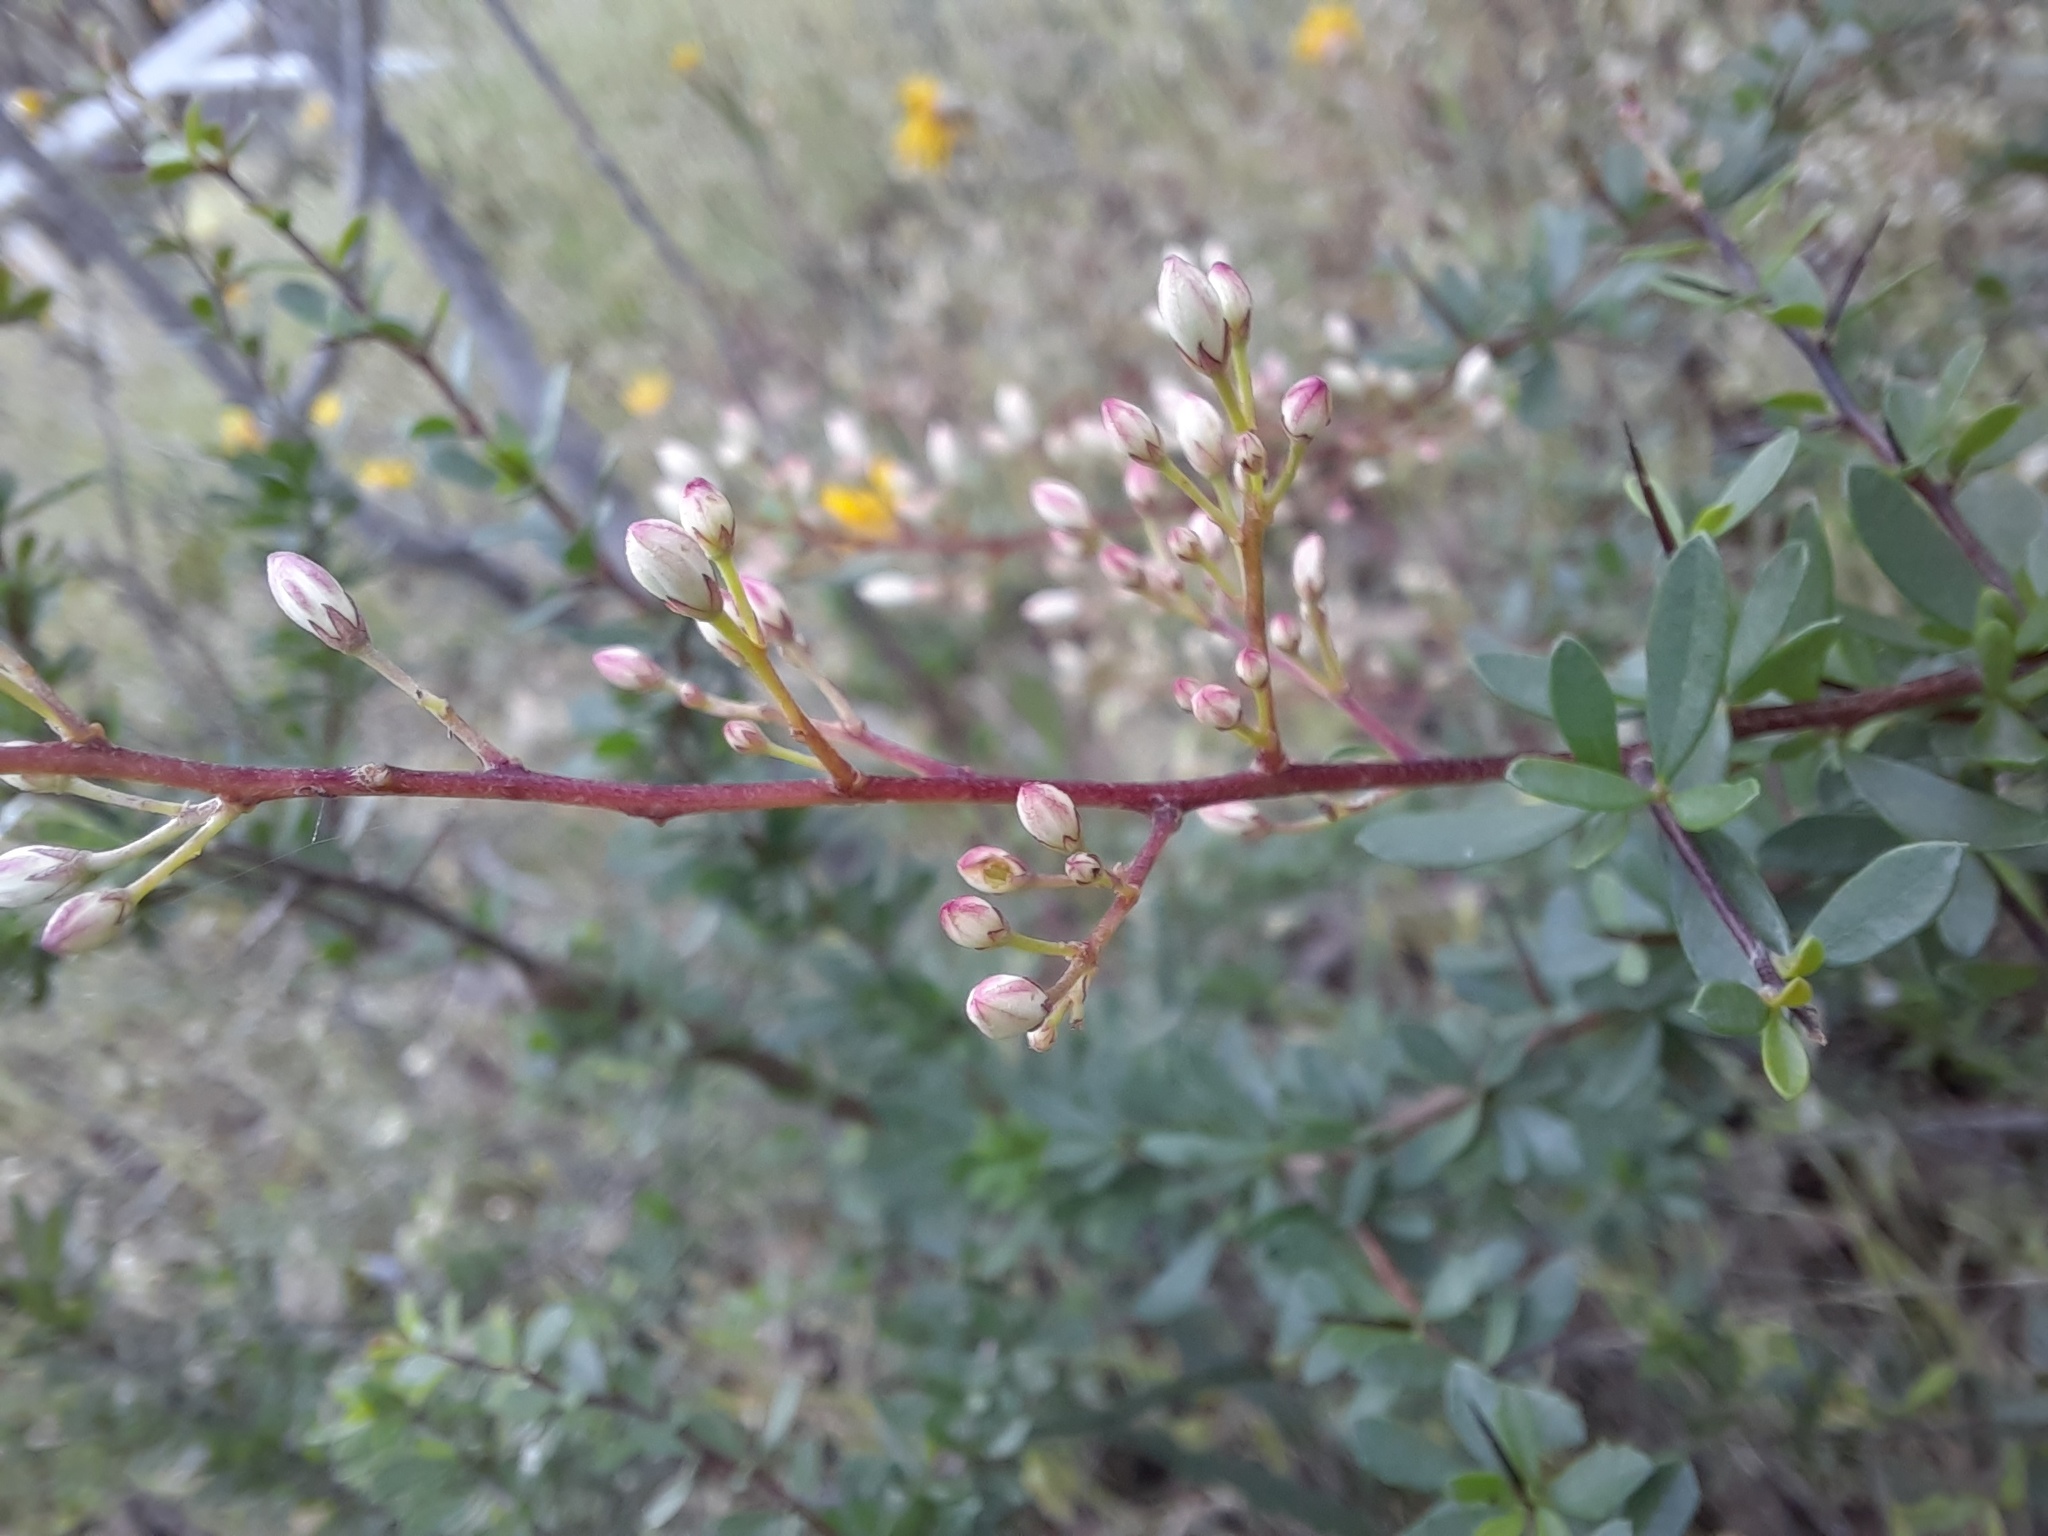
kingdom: Plantae
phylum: Tracheophyta
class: Magnoliopsida
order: Apiales
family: Pittosporaceae
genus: Bursaria
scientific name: Bursaria spinosa
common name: Australian blackthorn
